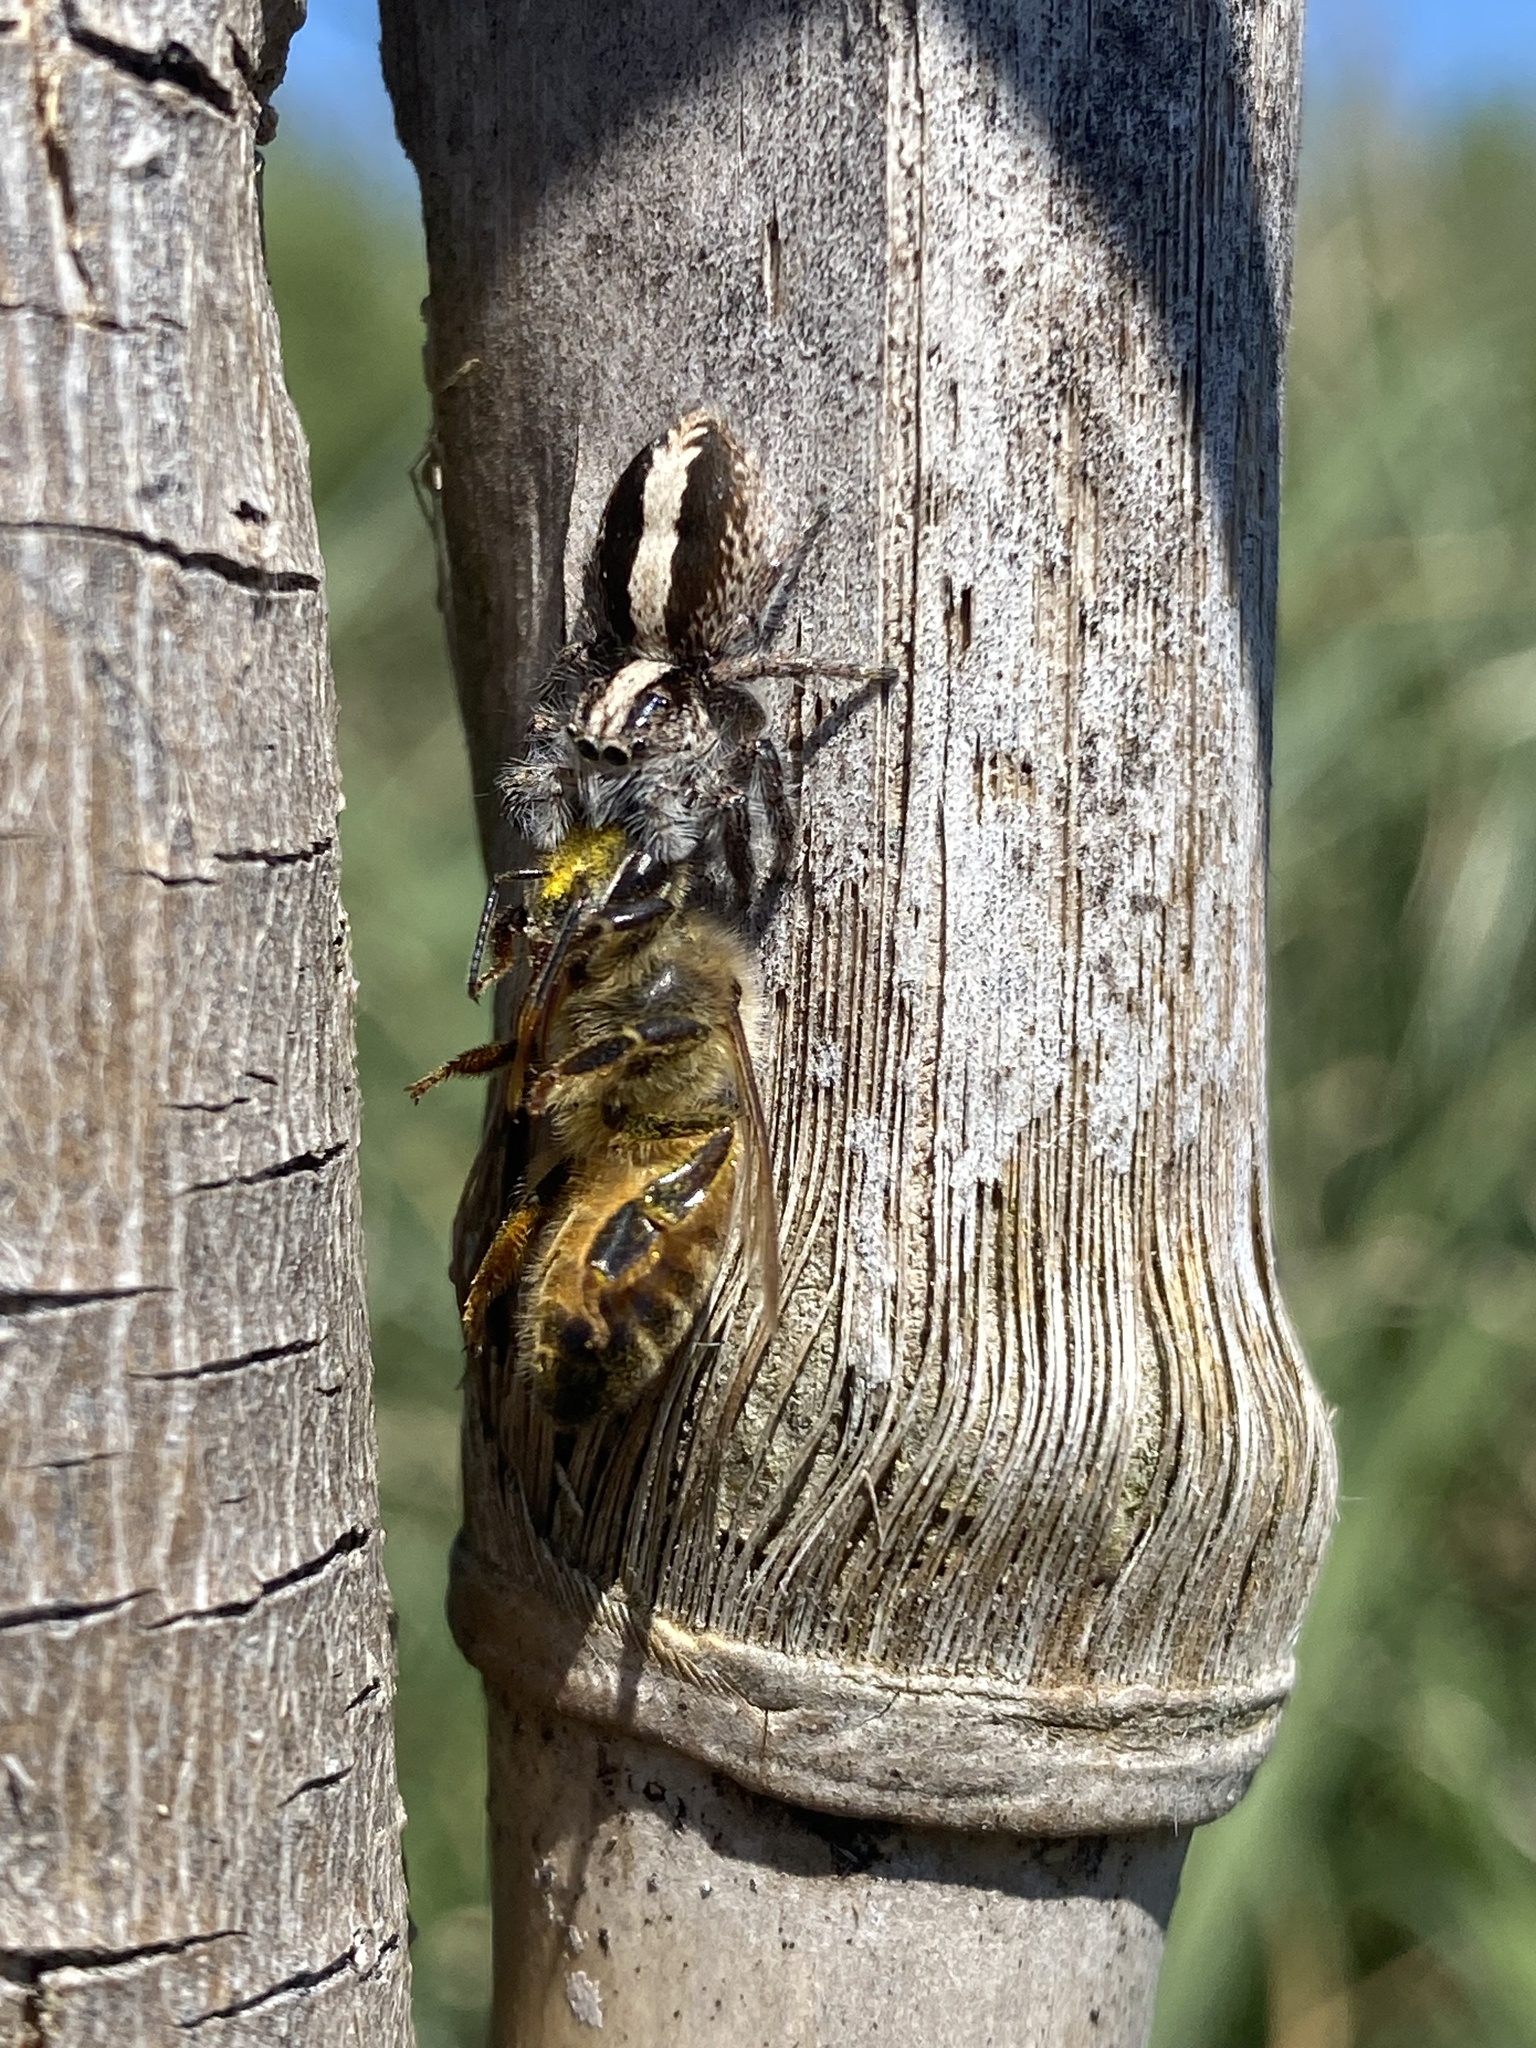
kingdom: Animalia
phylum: Arthropoda
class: Arachnida
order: Araneae
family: Salticidae
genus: Megafreya
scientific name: Megafreya sutrix
